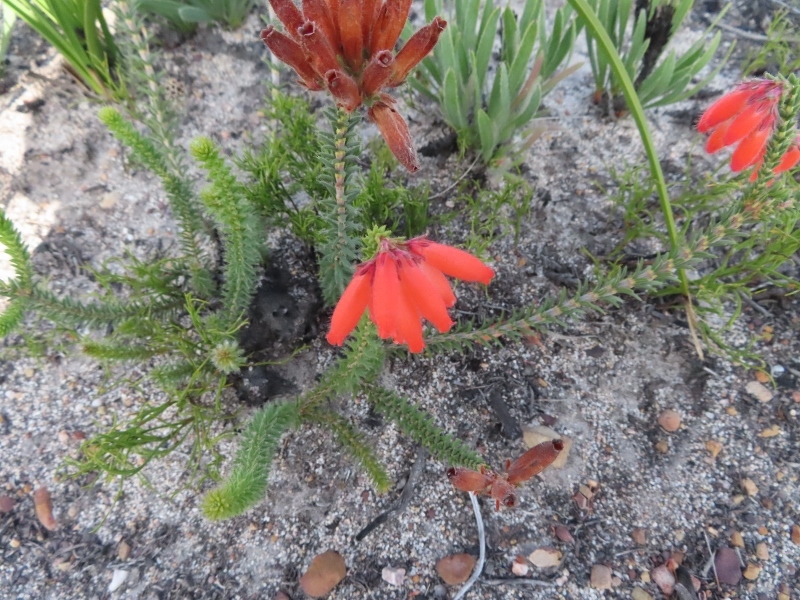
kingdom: Plantae
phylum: Tracheophyta
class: Magnoliopsida
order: Ericales
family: Ericaceae
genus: Erica
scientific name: Erica cerinthoides
